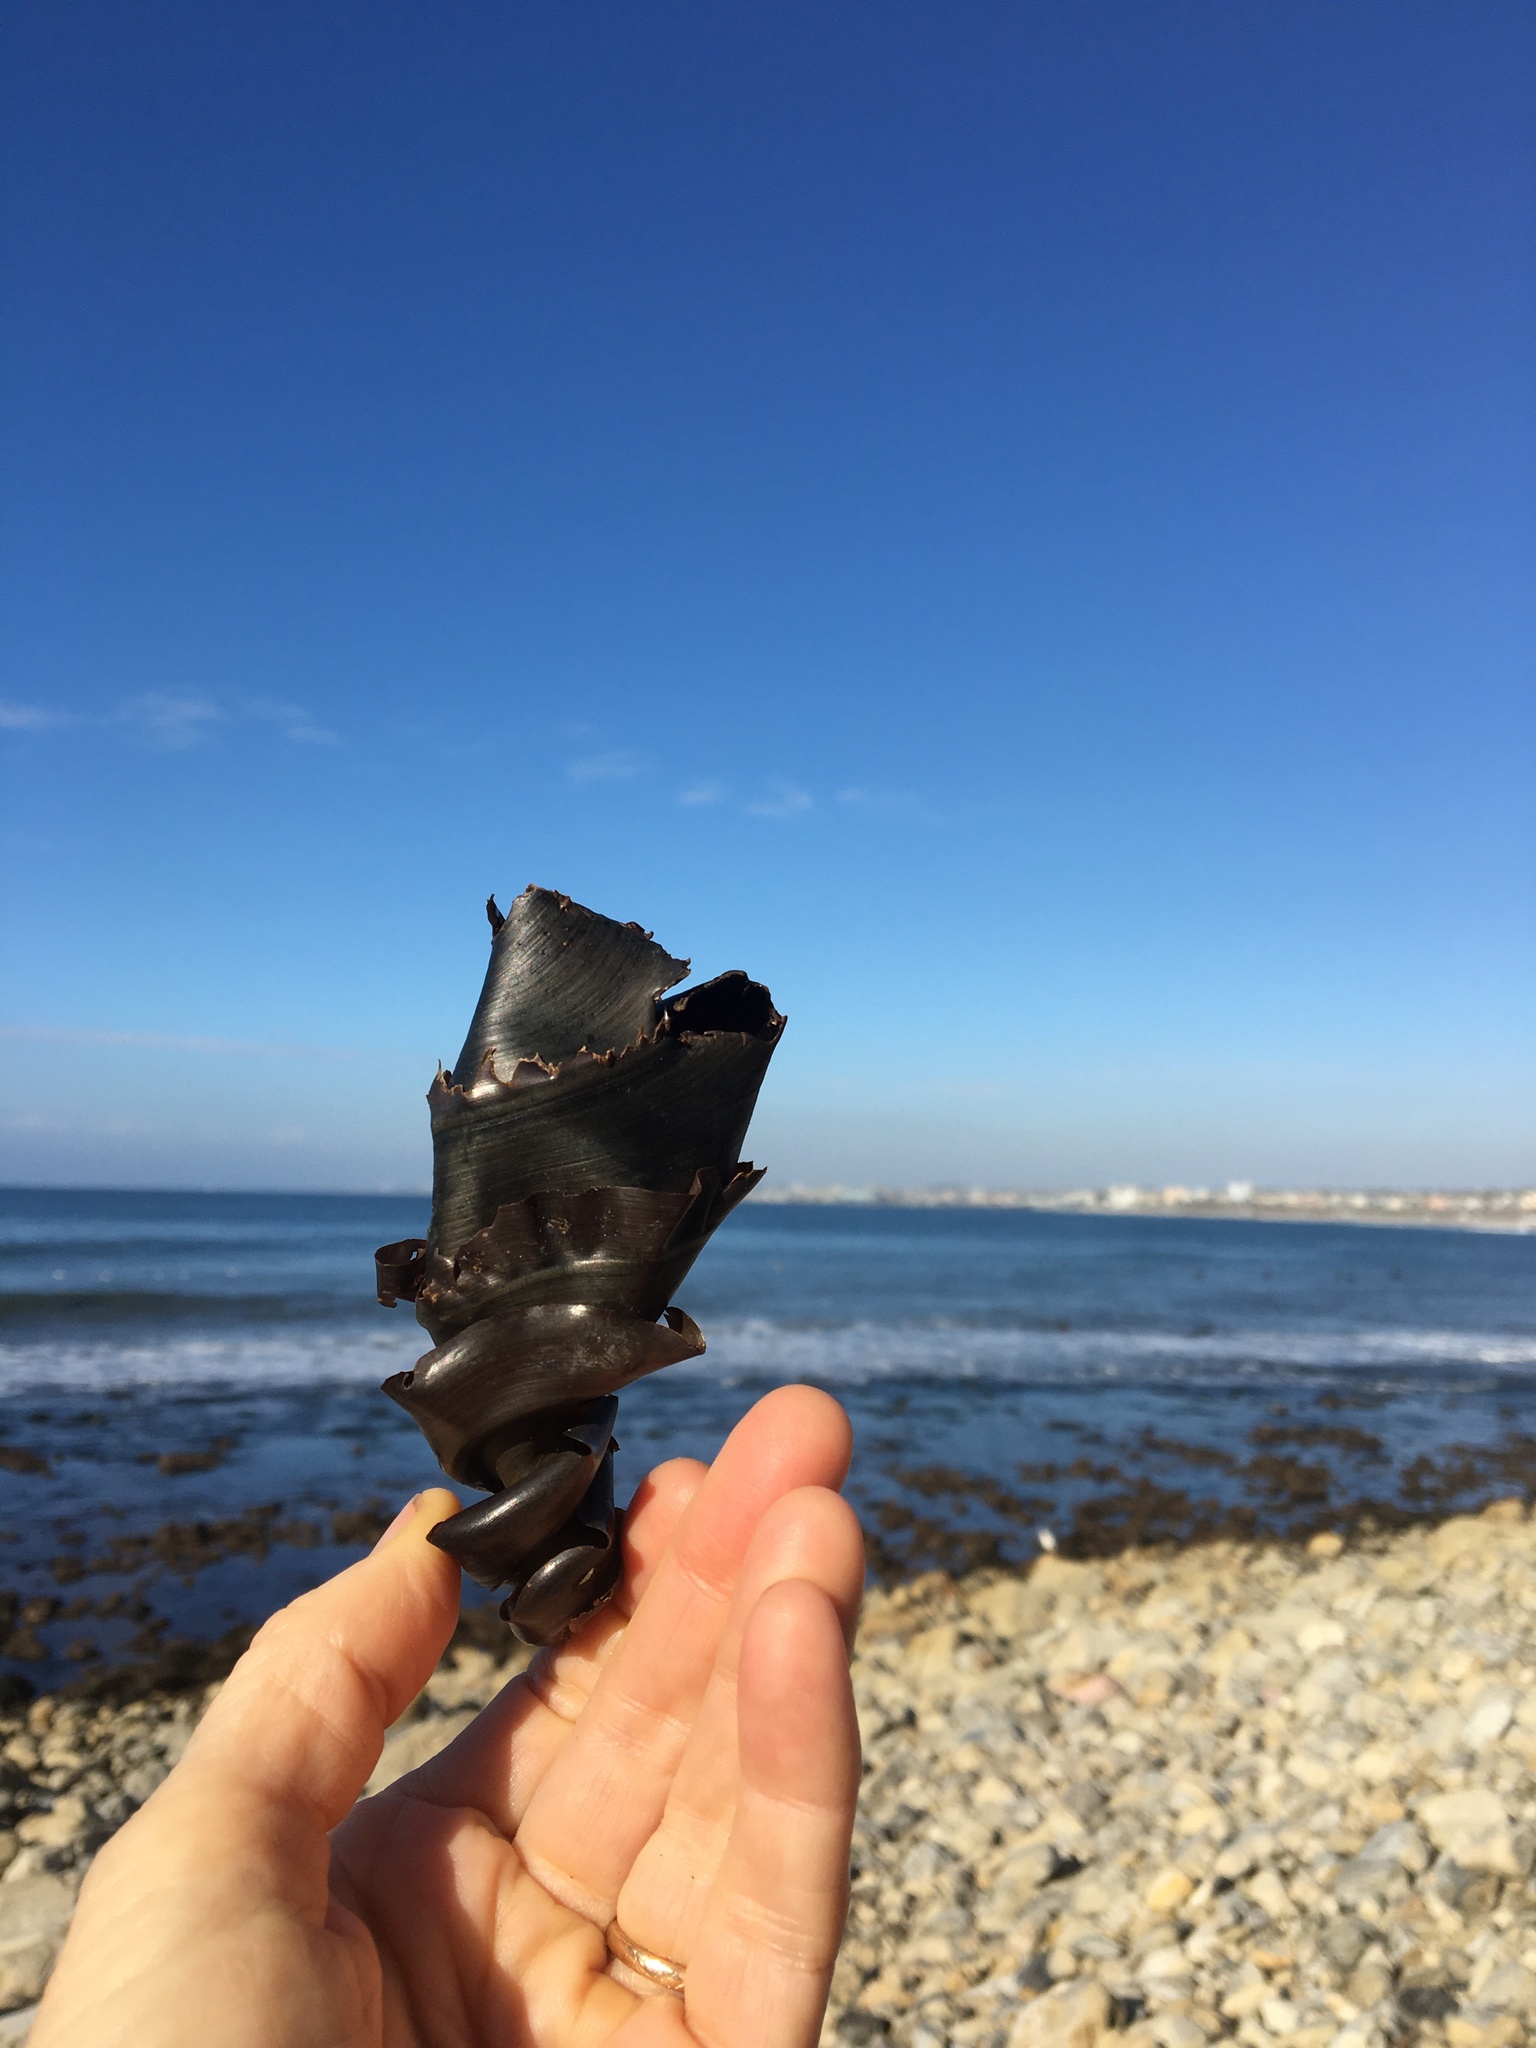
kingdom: Animalia
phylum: Chordata
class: Elasmobranchii
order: Heterodontiformes
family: Heterodontidae
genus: Heterodontus
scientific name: Heterodontus francisci
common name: Horn shark
